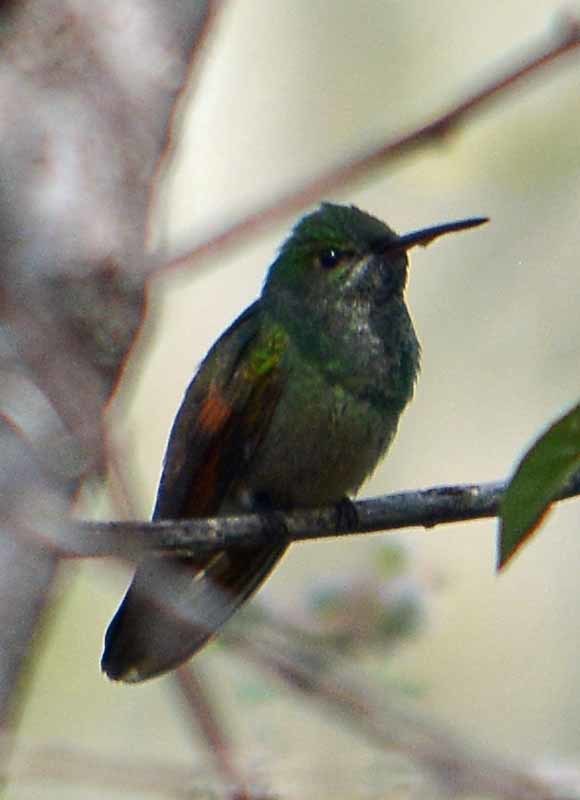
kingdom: Animalia
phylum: Chordata
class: Aves
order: Apodiformes
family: Trochilidae
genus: Saucerottia
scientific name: Saucerottia beryllina
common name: Berylline hummingbird
